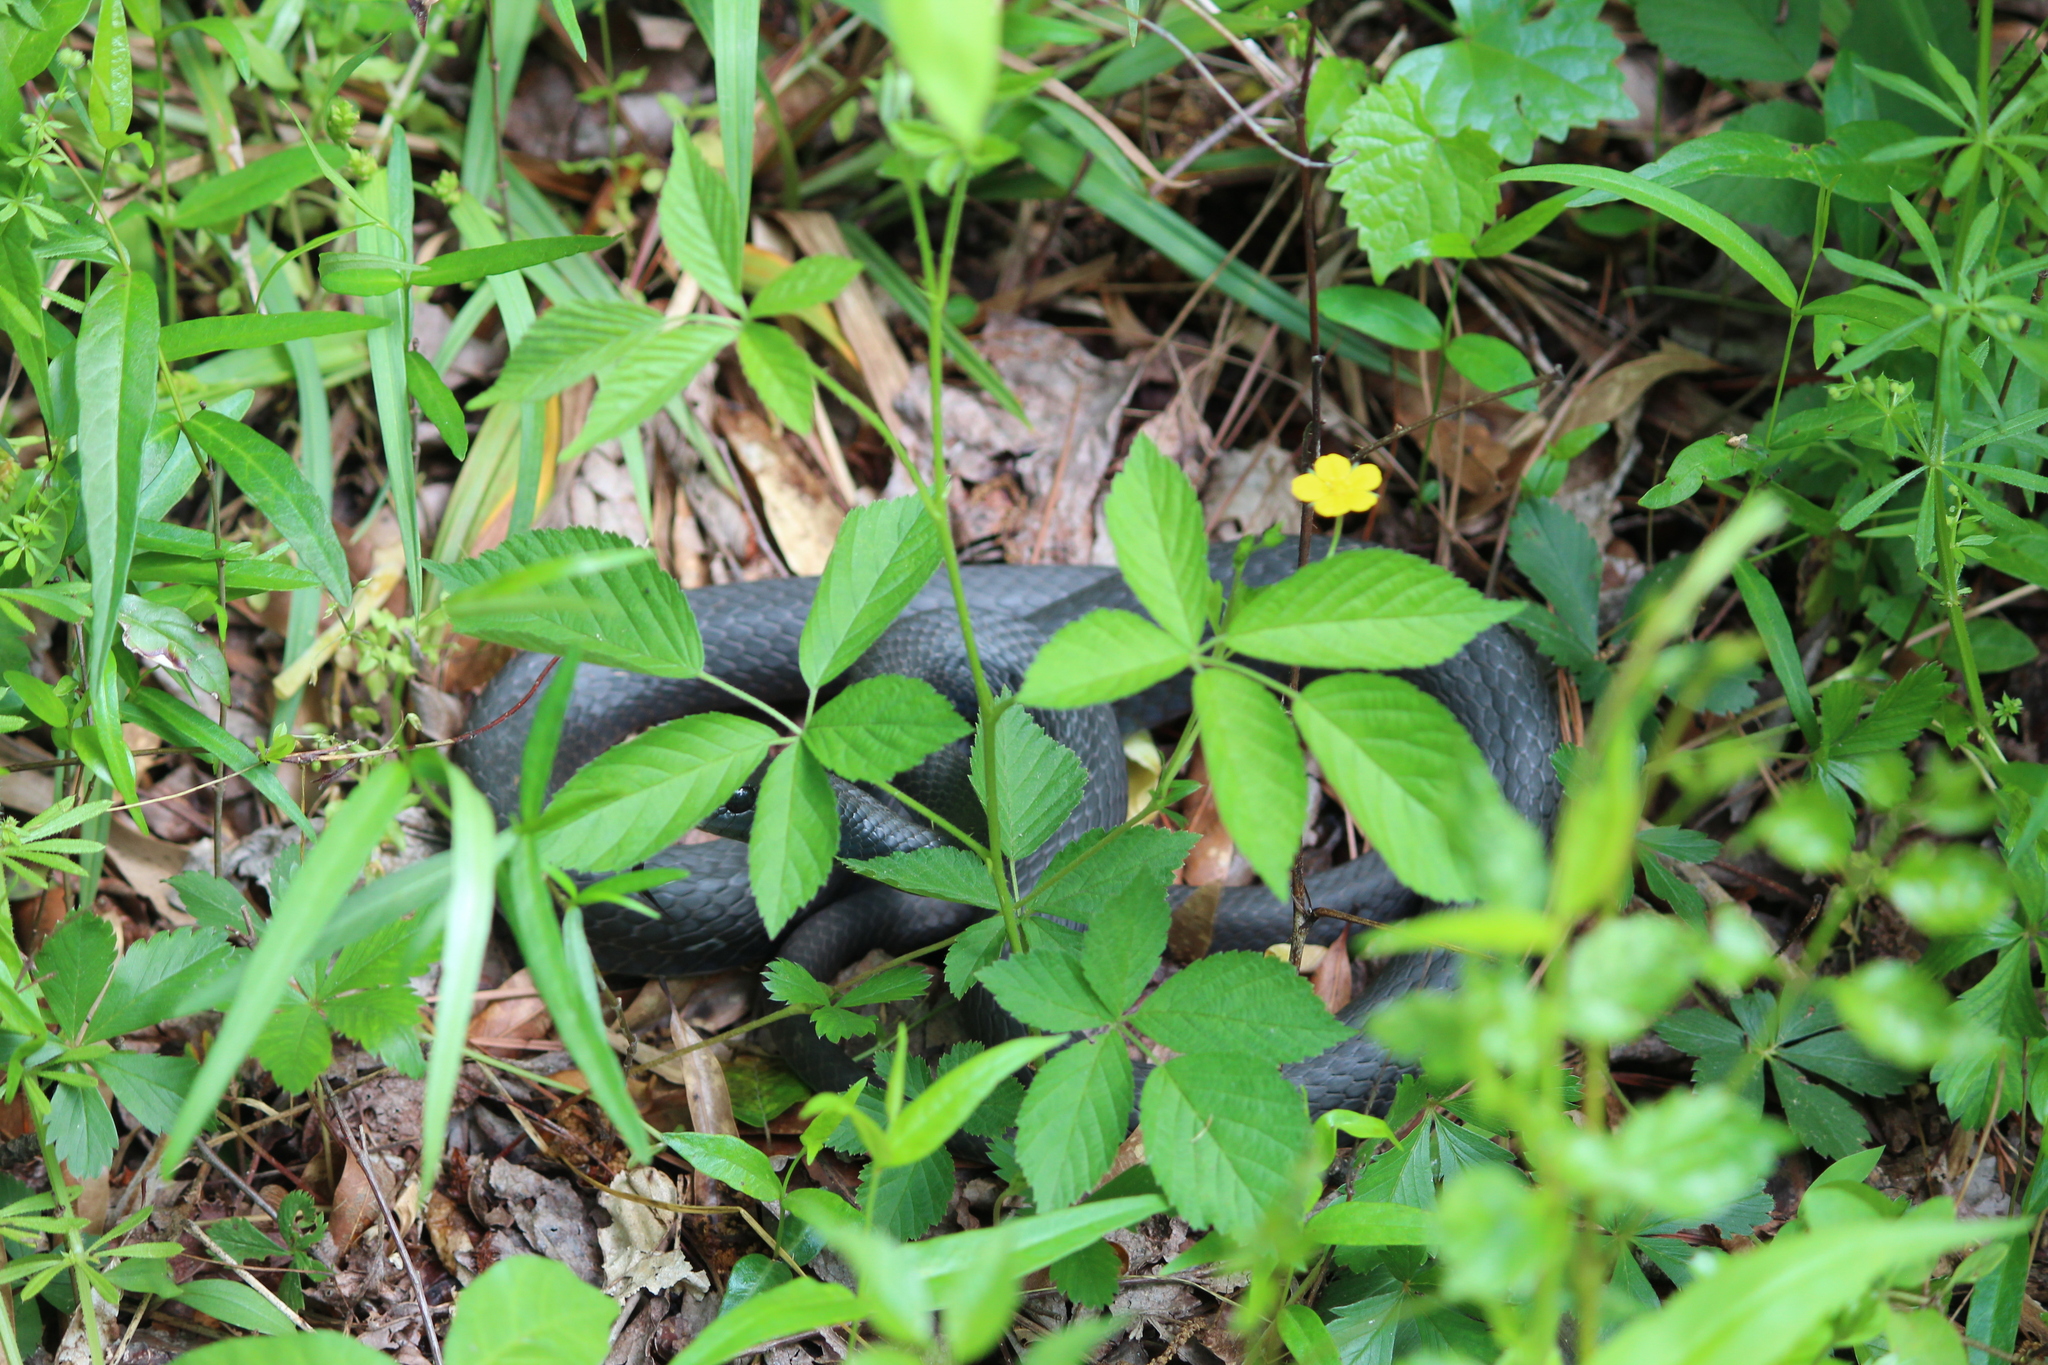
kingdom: Animalia
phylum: Chordata
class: Squamata
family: Colubridae
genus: Coluber
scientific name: Coluber constrictor
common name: Eastern racer
